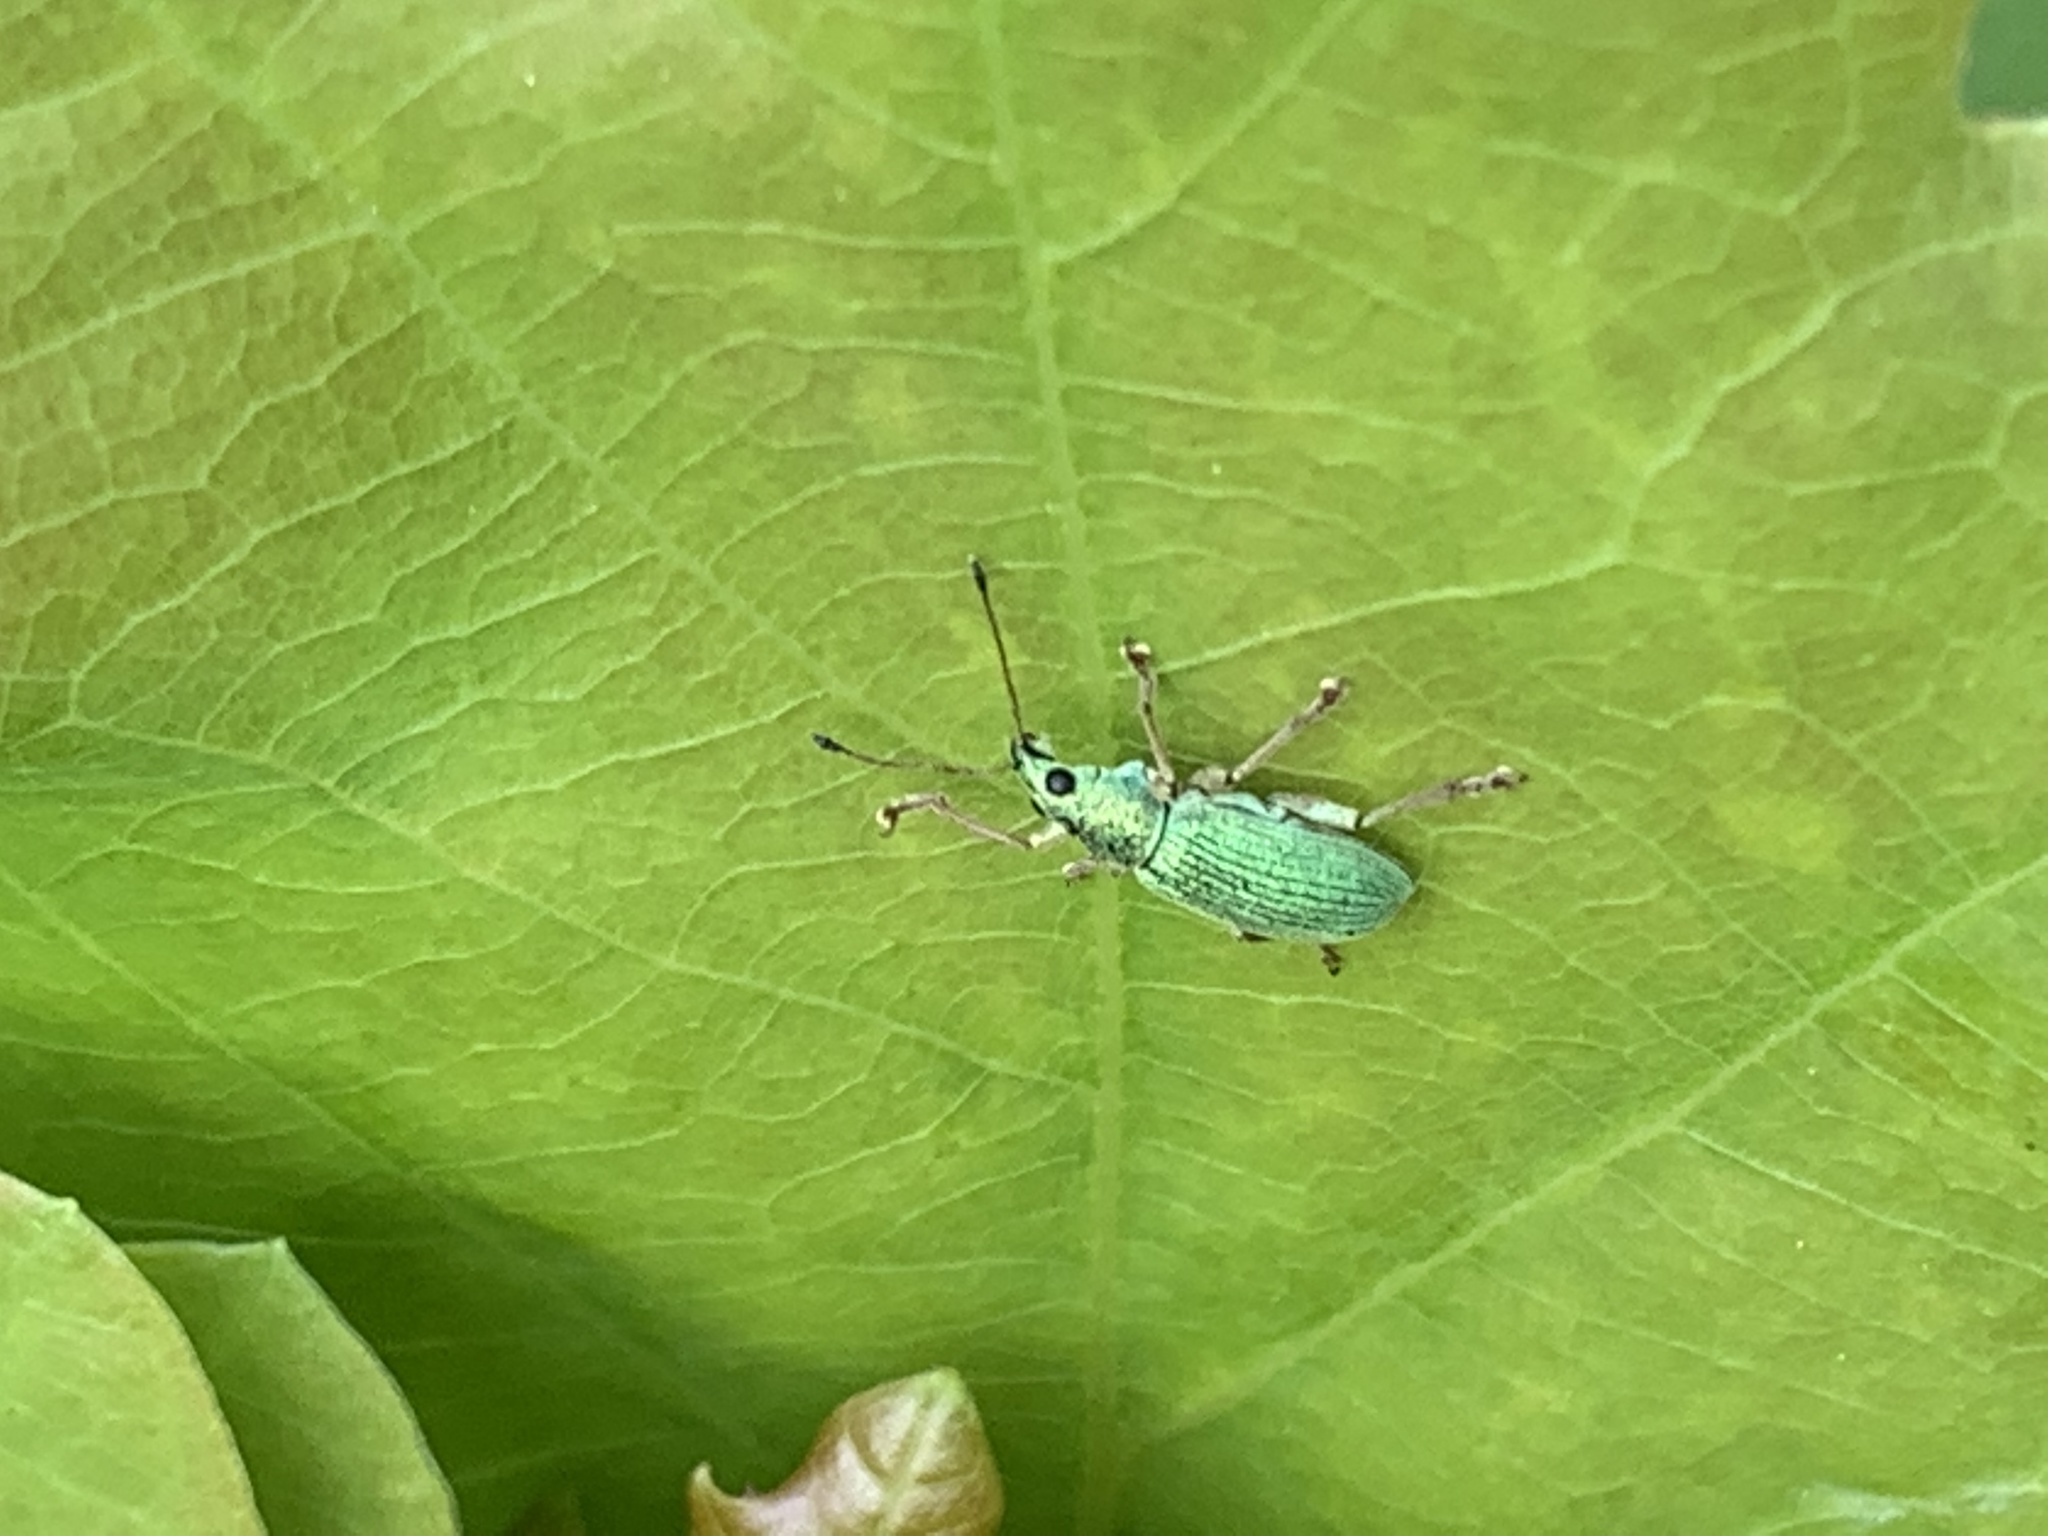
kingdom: Animalia
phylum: Arthropoda
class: Insecta
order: Coleoptera
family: Curculionidae
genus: Polydrusus
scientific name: Polydrusus formosus
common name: Weevil
